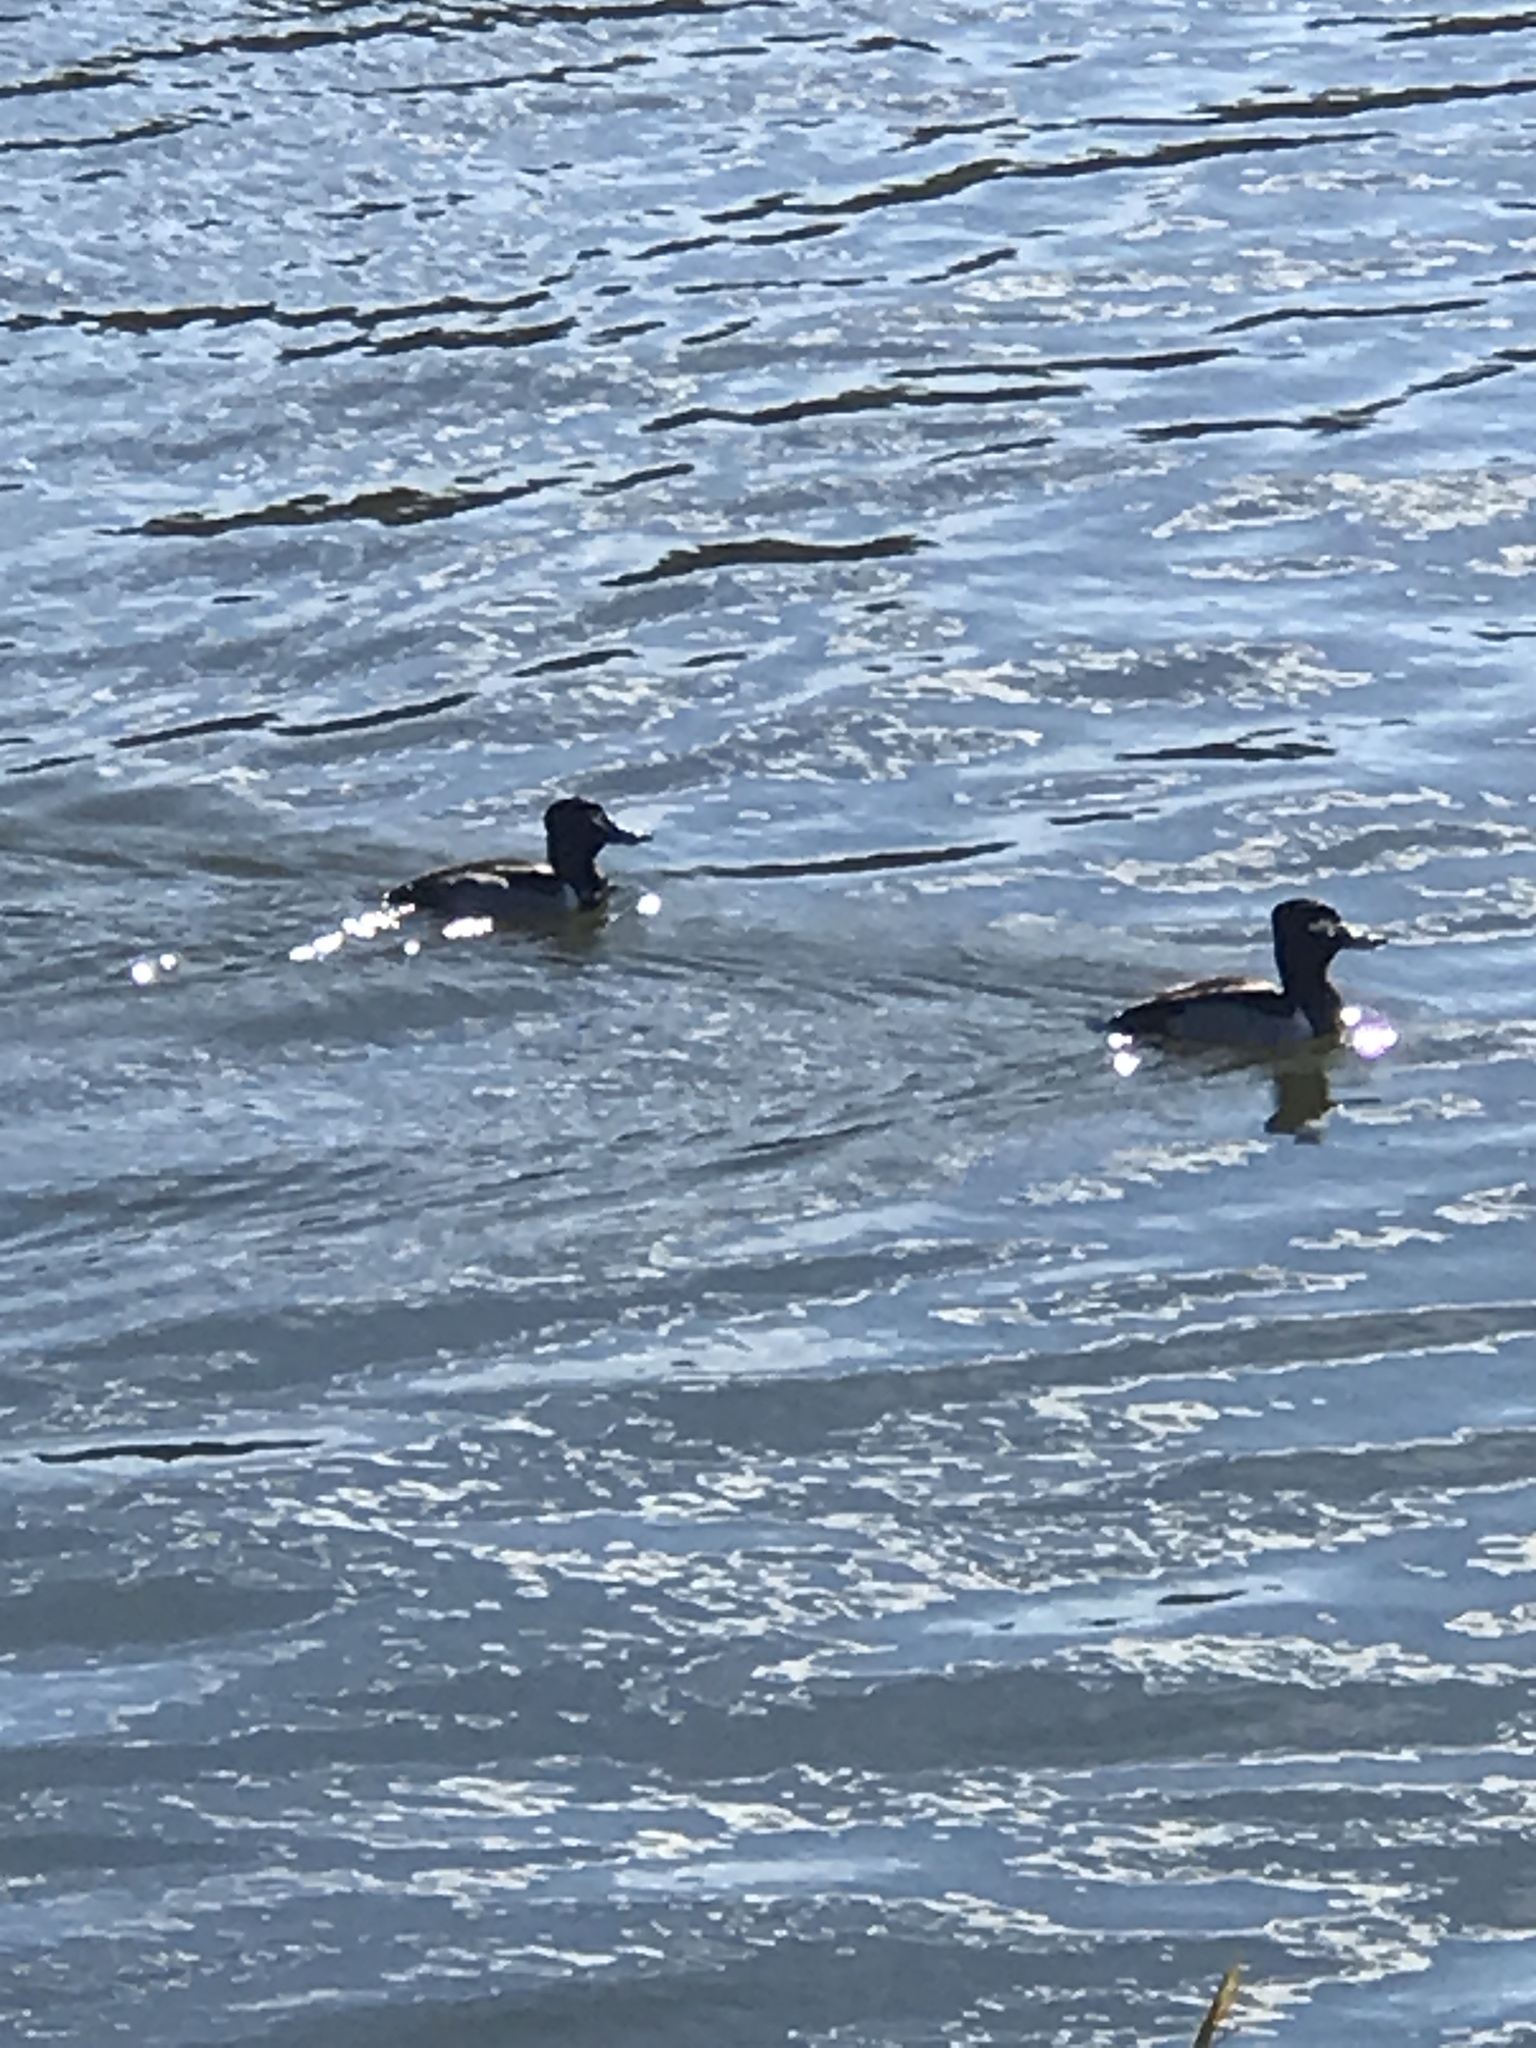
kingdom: Animalia
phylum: Chordata
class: Aves
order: Anseriformes
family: Anatidae
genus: Aythya
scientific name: Aythya collaris
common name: Ring-necked duck
